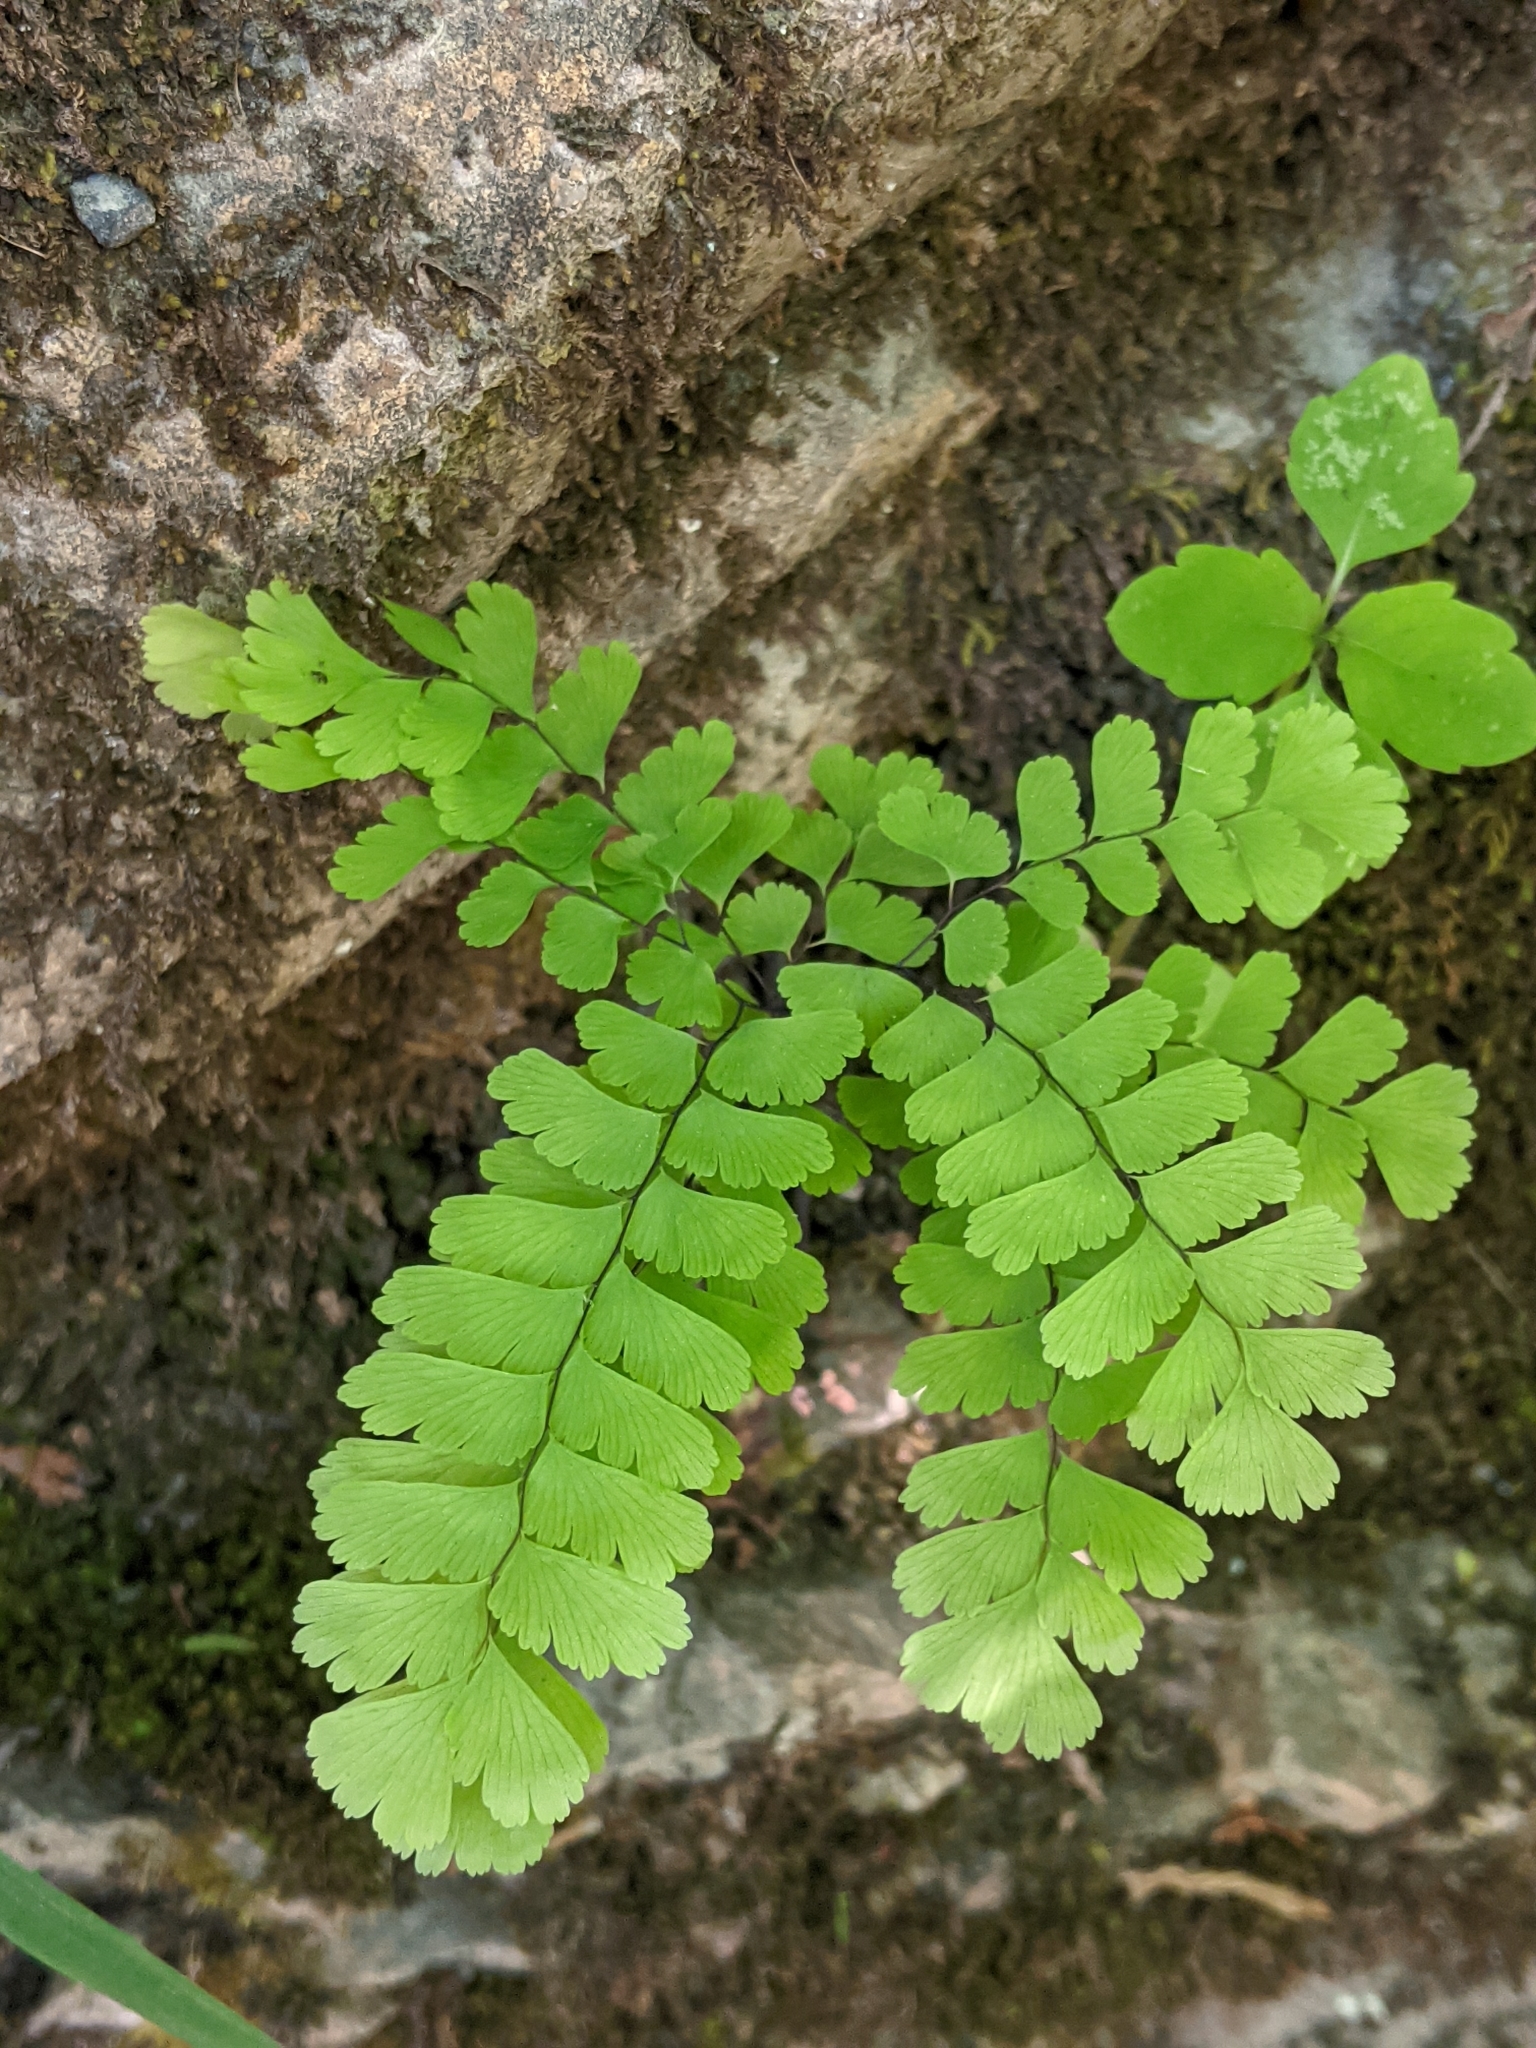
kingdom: Plantae
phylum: Tracheophyta
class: Polypodiopsida
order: Polypodiales
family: Pteridaceae
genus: Adiantum
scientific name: Adiantum pedatum
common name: Five-finger fern
